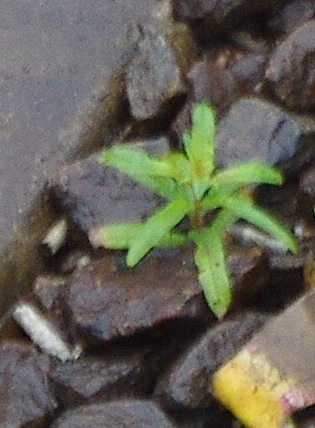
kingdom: Plantae
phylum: Tracheophyta
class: Magnoliopsida
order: Myrtales
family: Onagraceae
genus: Chamaenerion
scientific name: Chamaenerion angustifolium
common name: Fireweed
